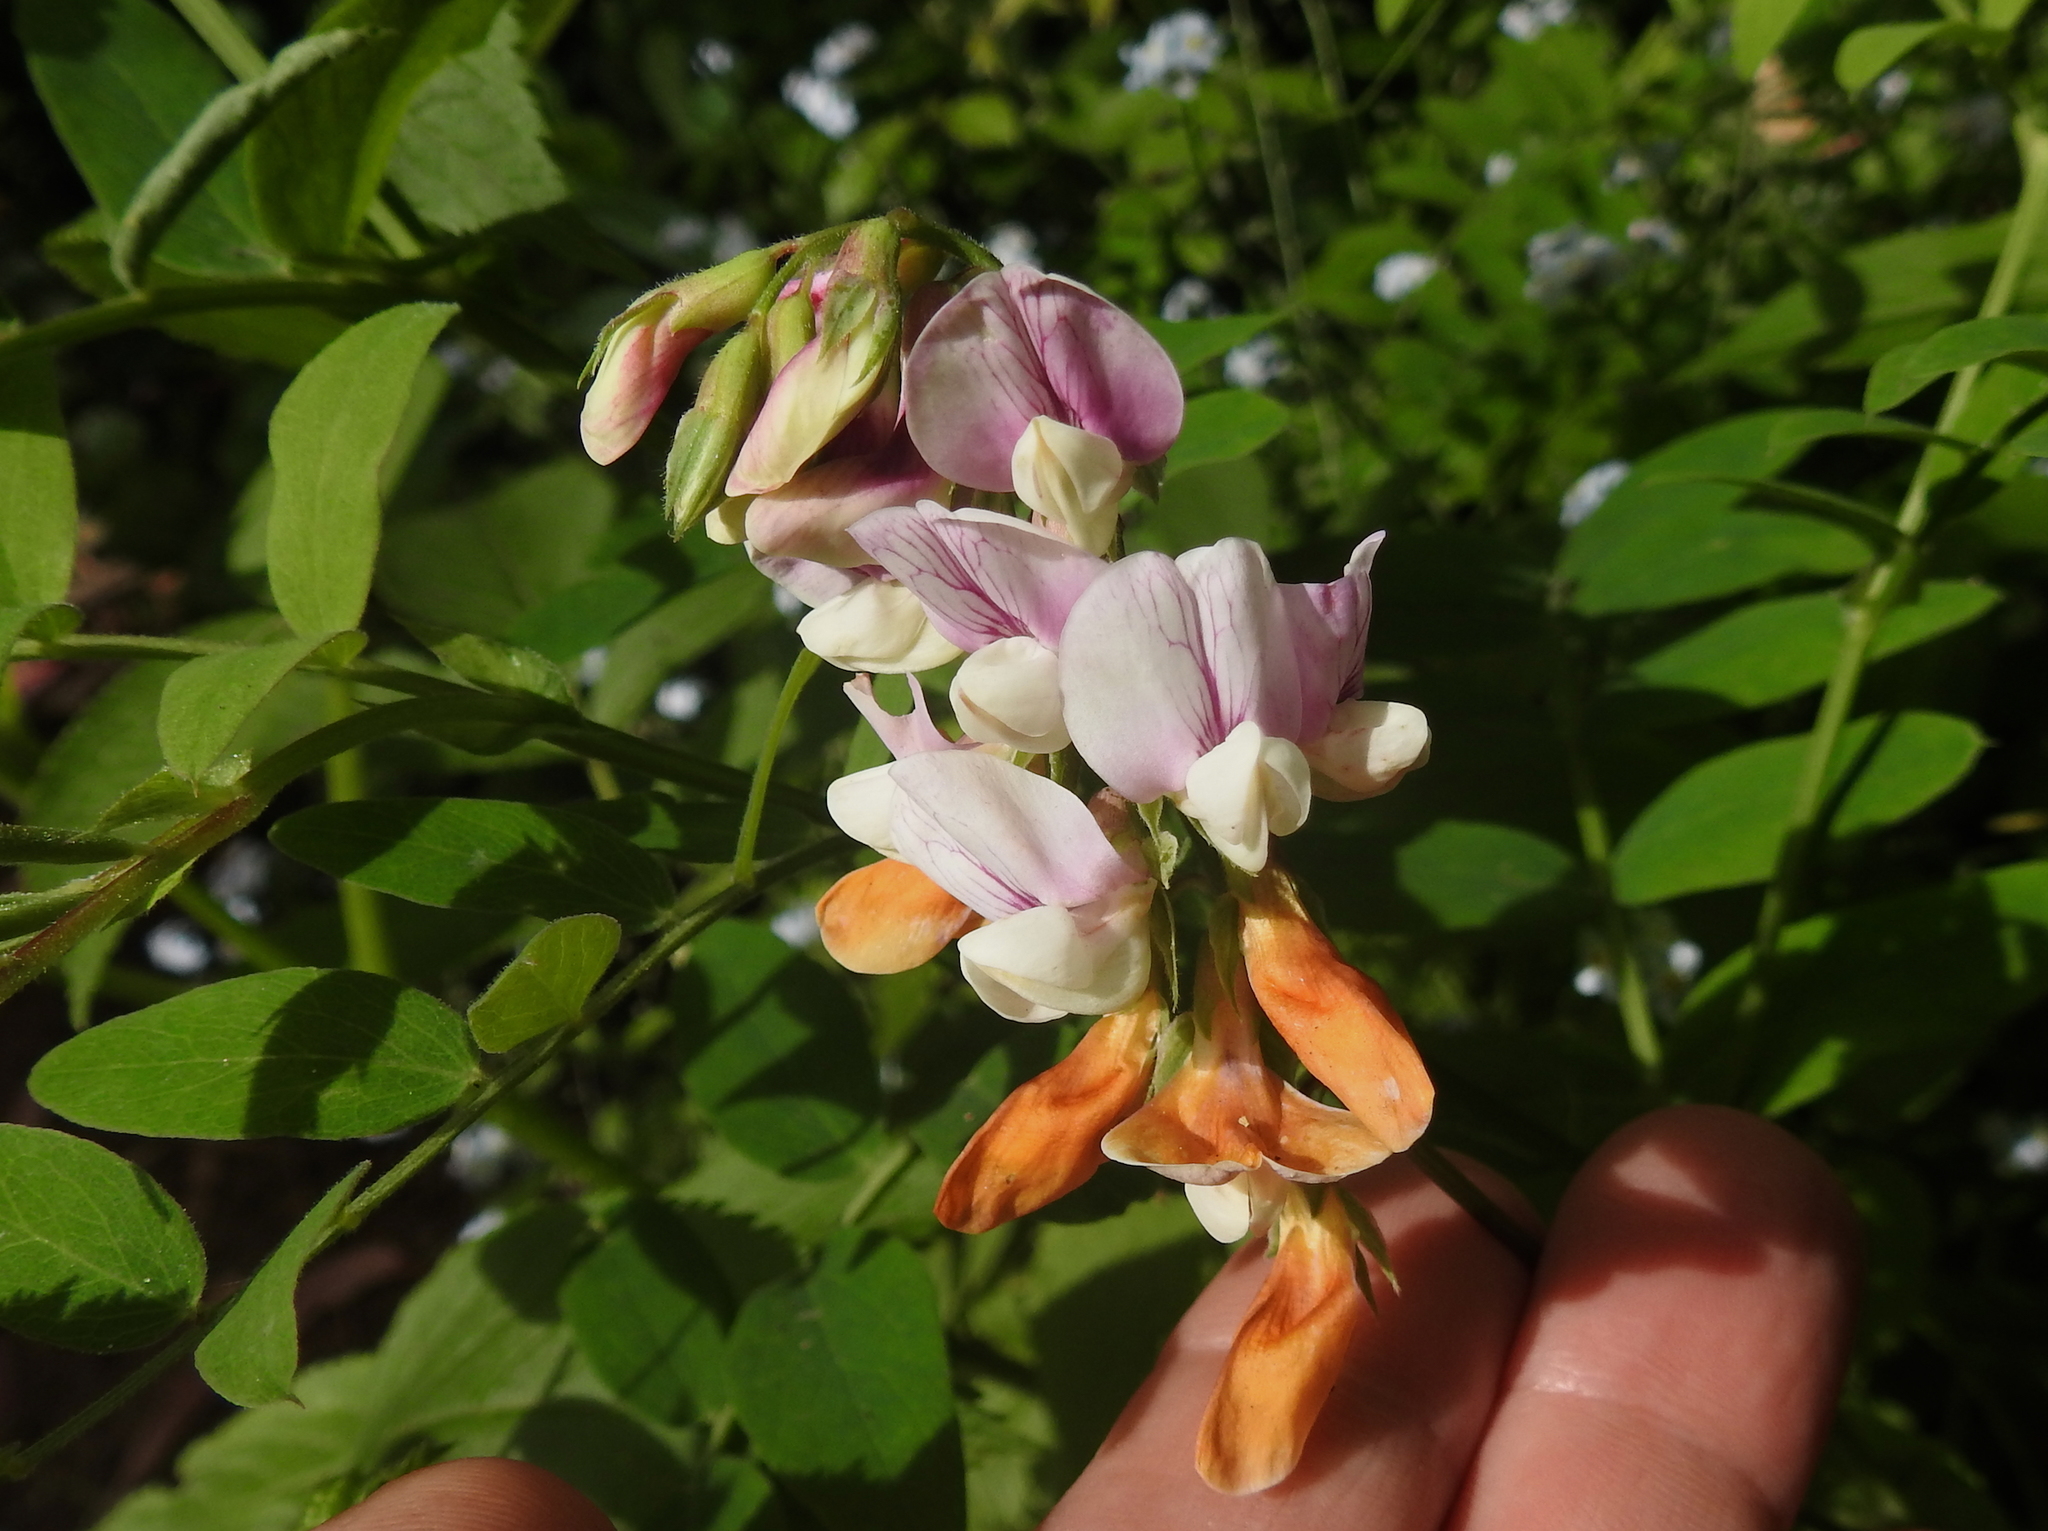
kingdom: Plantae
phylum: Tracheophyta
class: Magnoliopsida
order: Fabales
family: Fabaceae
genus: Lathyrus
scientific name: Lathyrus vestitus
